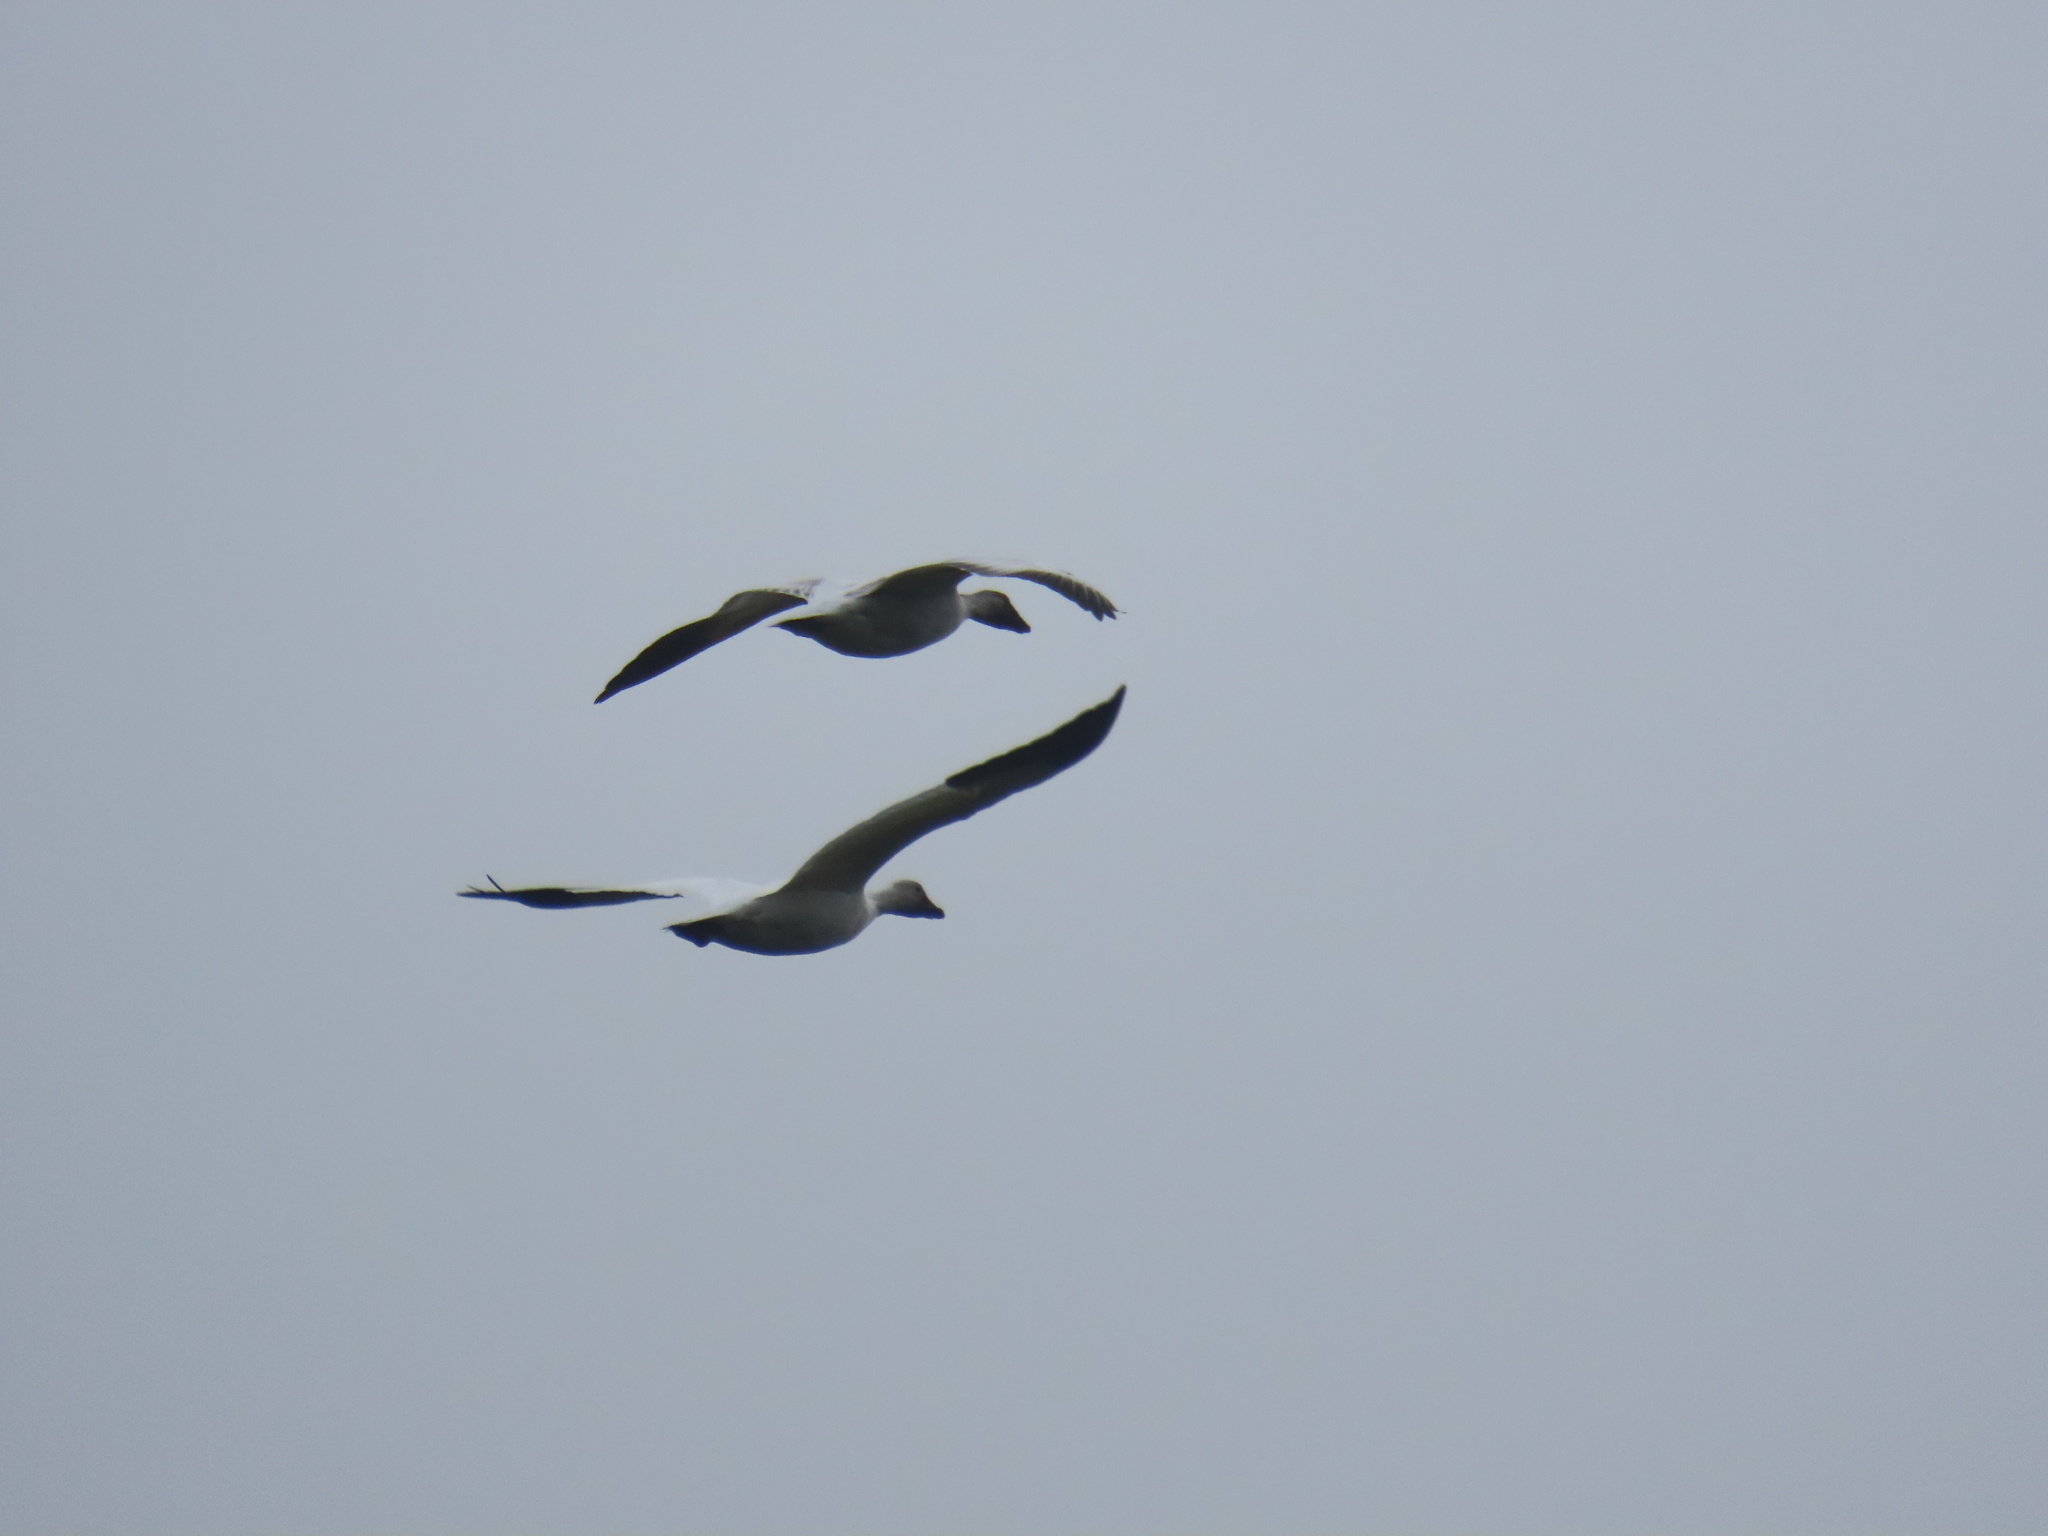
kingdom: Animalia
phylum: Chordata
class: Aves
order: Anseriformes
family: Anatidae
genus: Anser
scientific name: Anser caerulescens
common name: Snow goose
